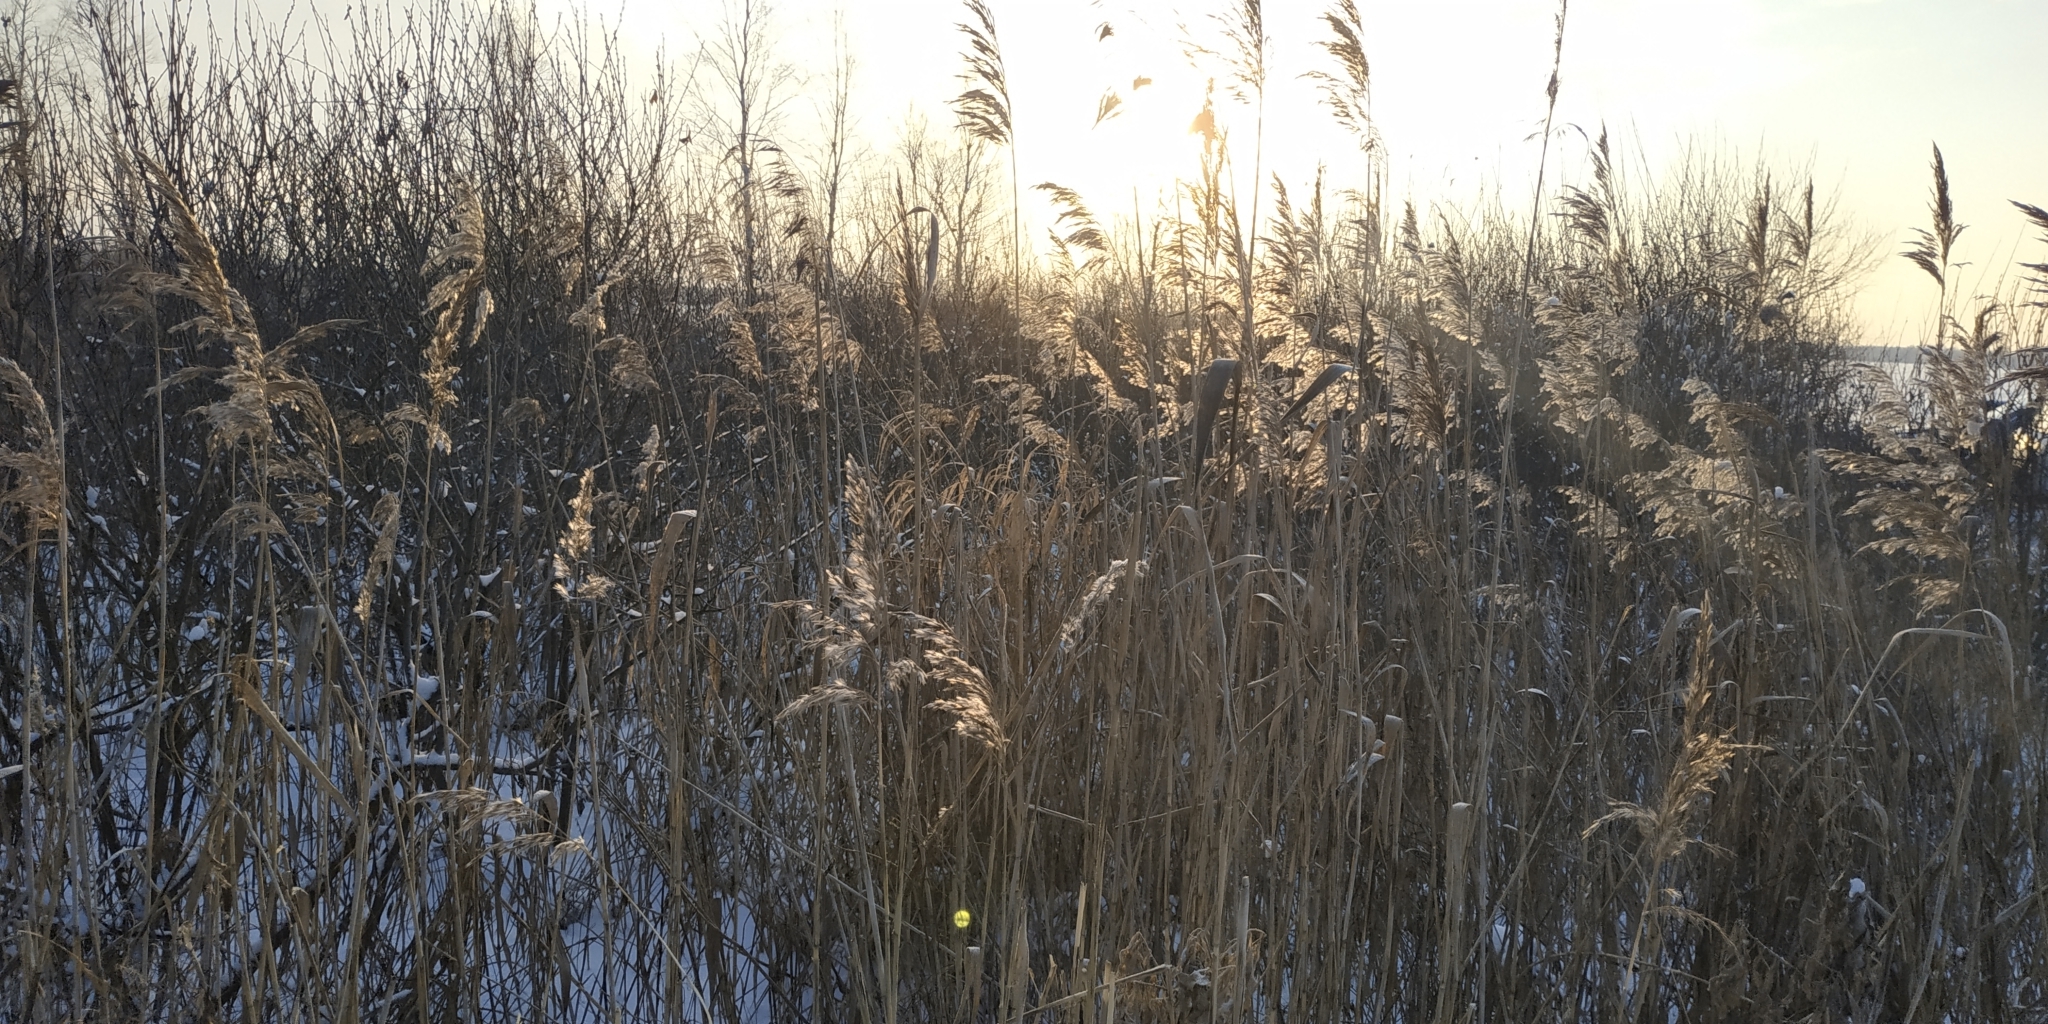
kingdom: Plantae
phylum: Tracheophyta
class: Liliopsida
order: Poales
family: Poaceae
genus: Phragmites
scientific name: Phragmites australis
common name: Common reed
